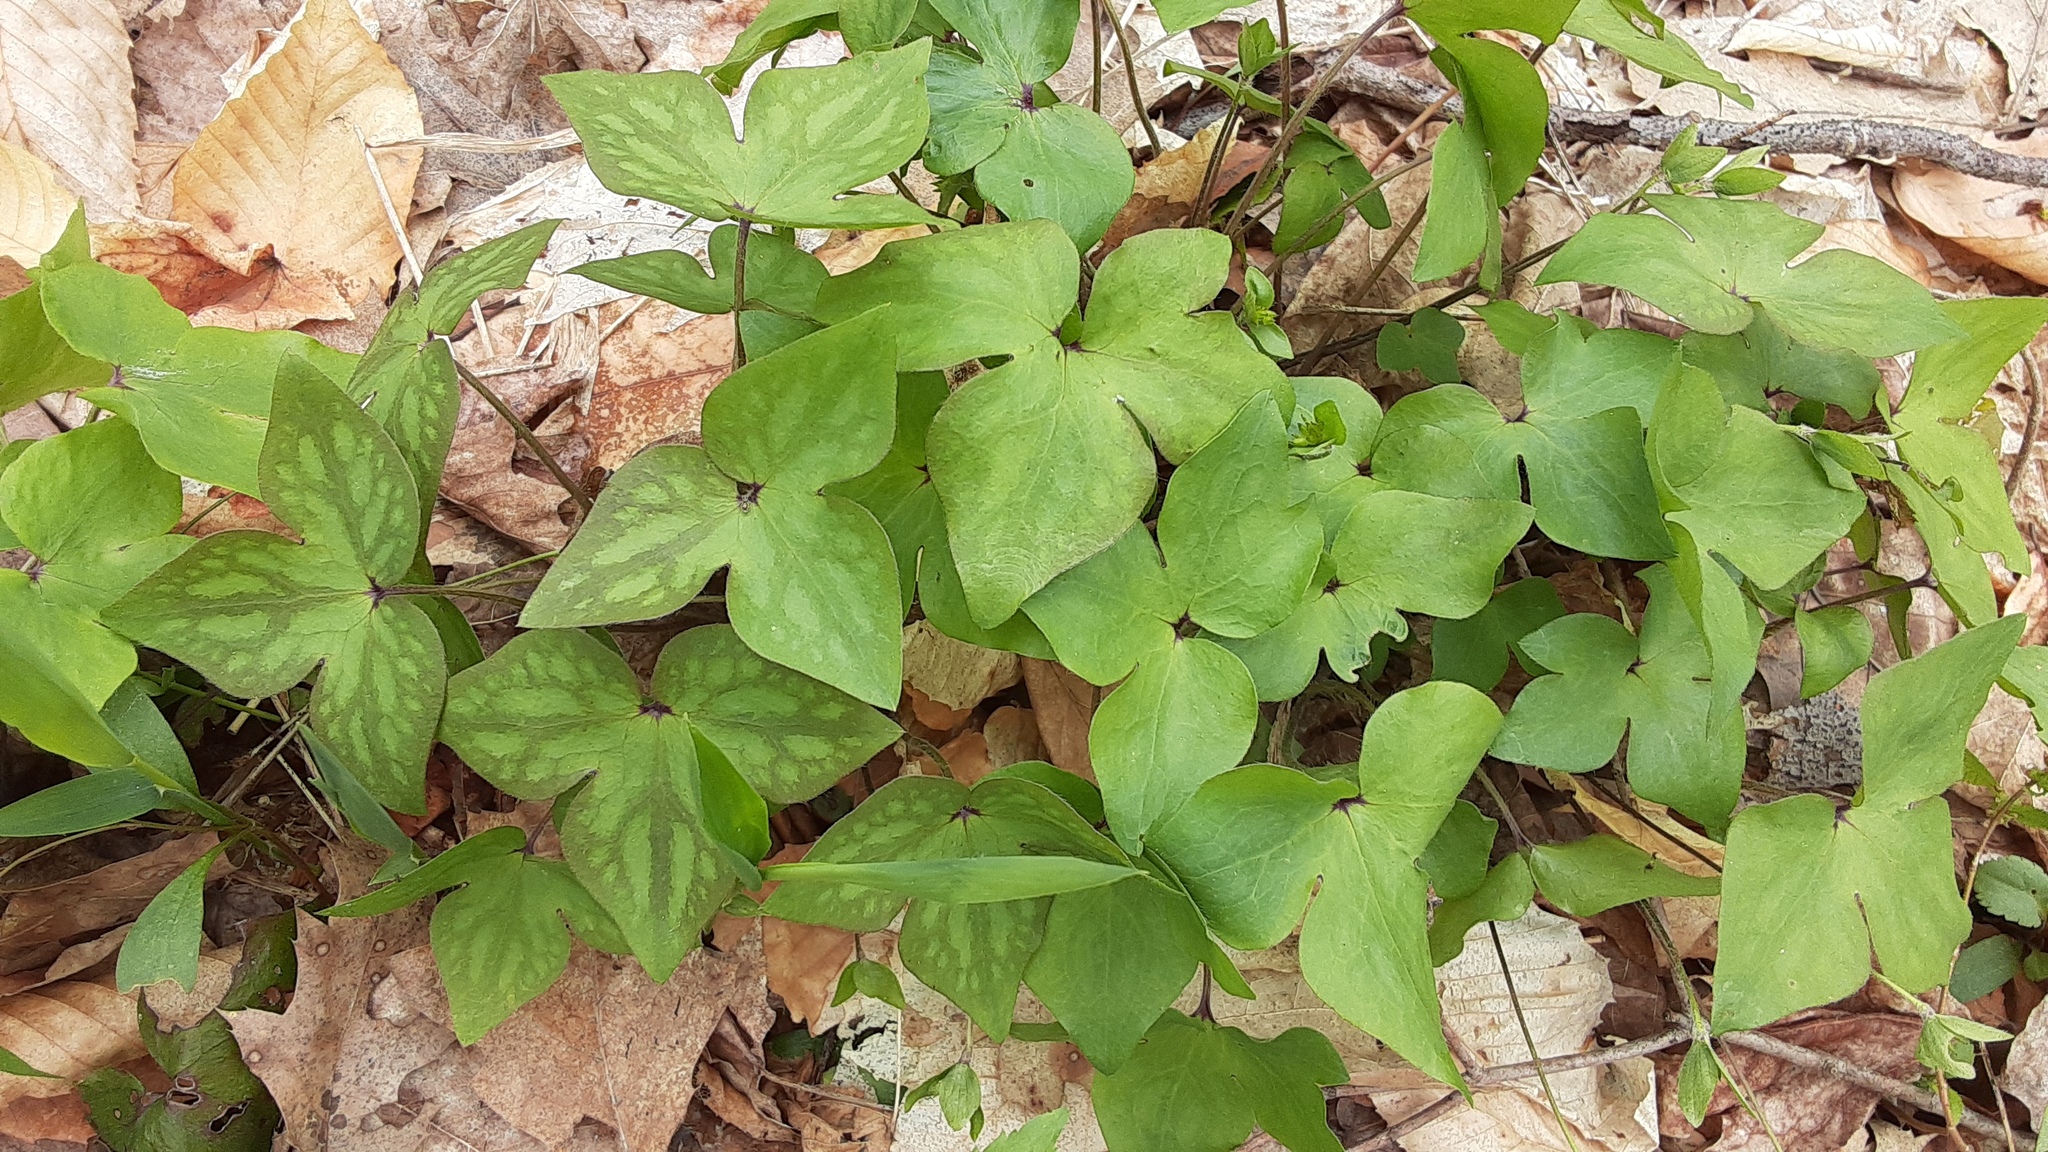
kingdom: Plantae
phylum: Tracheophyta
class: Magnoliopsida
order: Ranunculales
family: Ranunculaceae
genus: Hepatica
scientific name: Hepatica acutiloba
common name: Sharp-lobed hepatica
